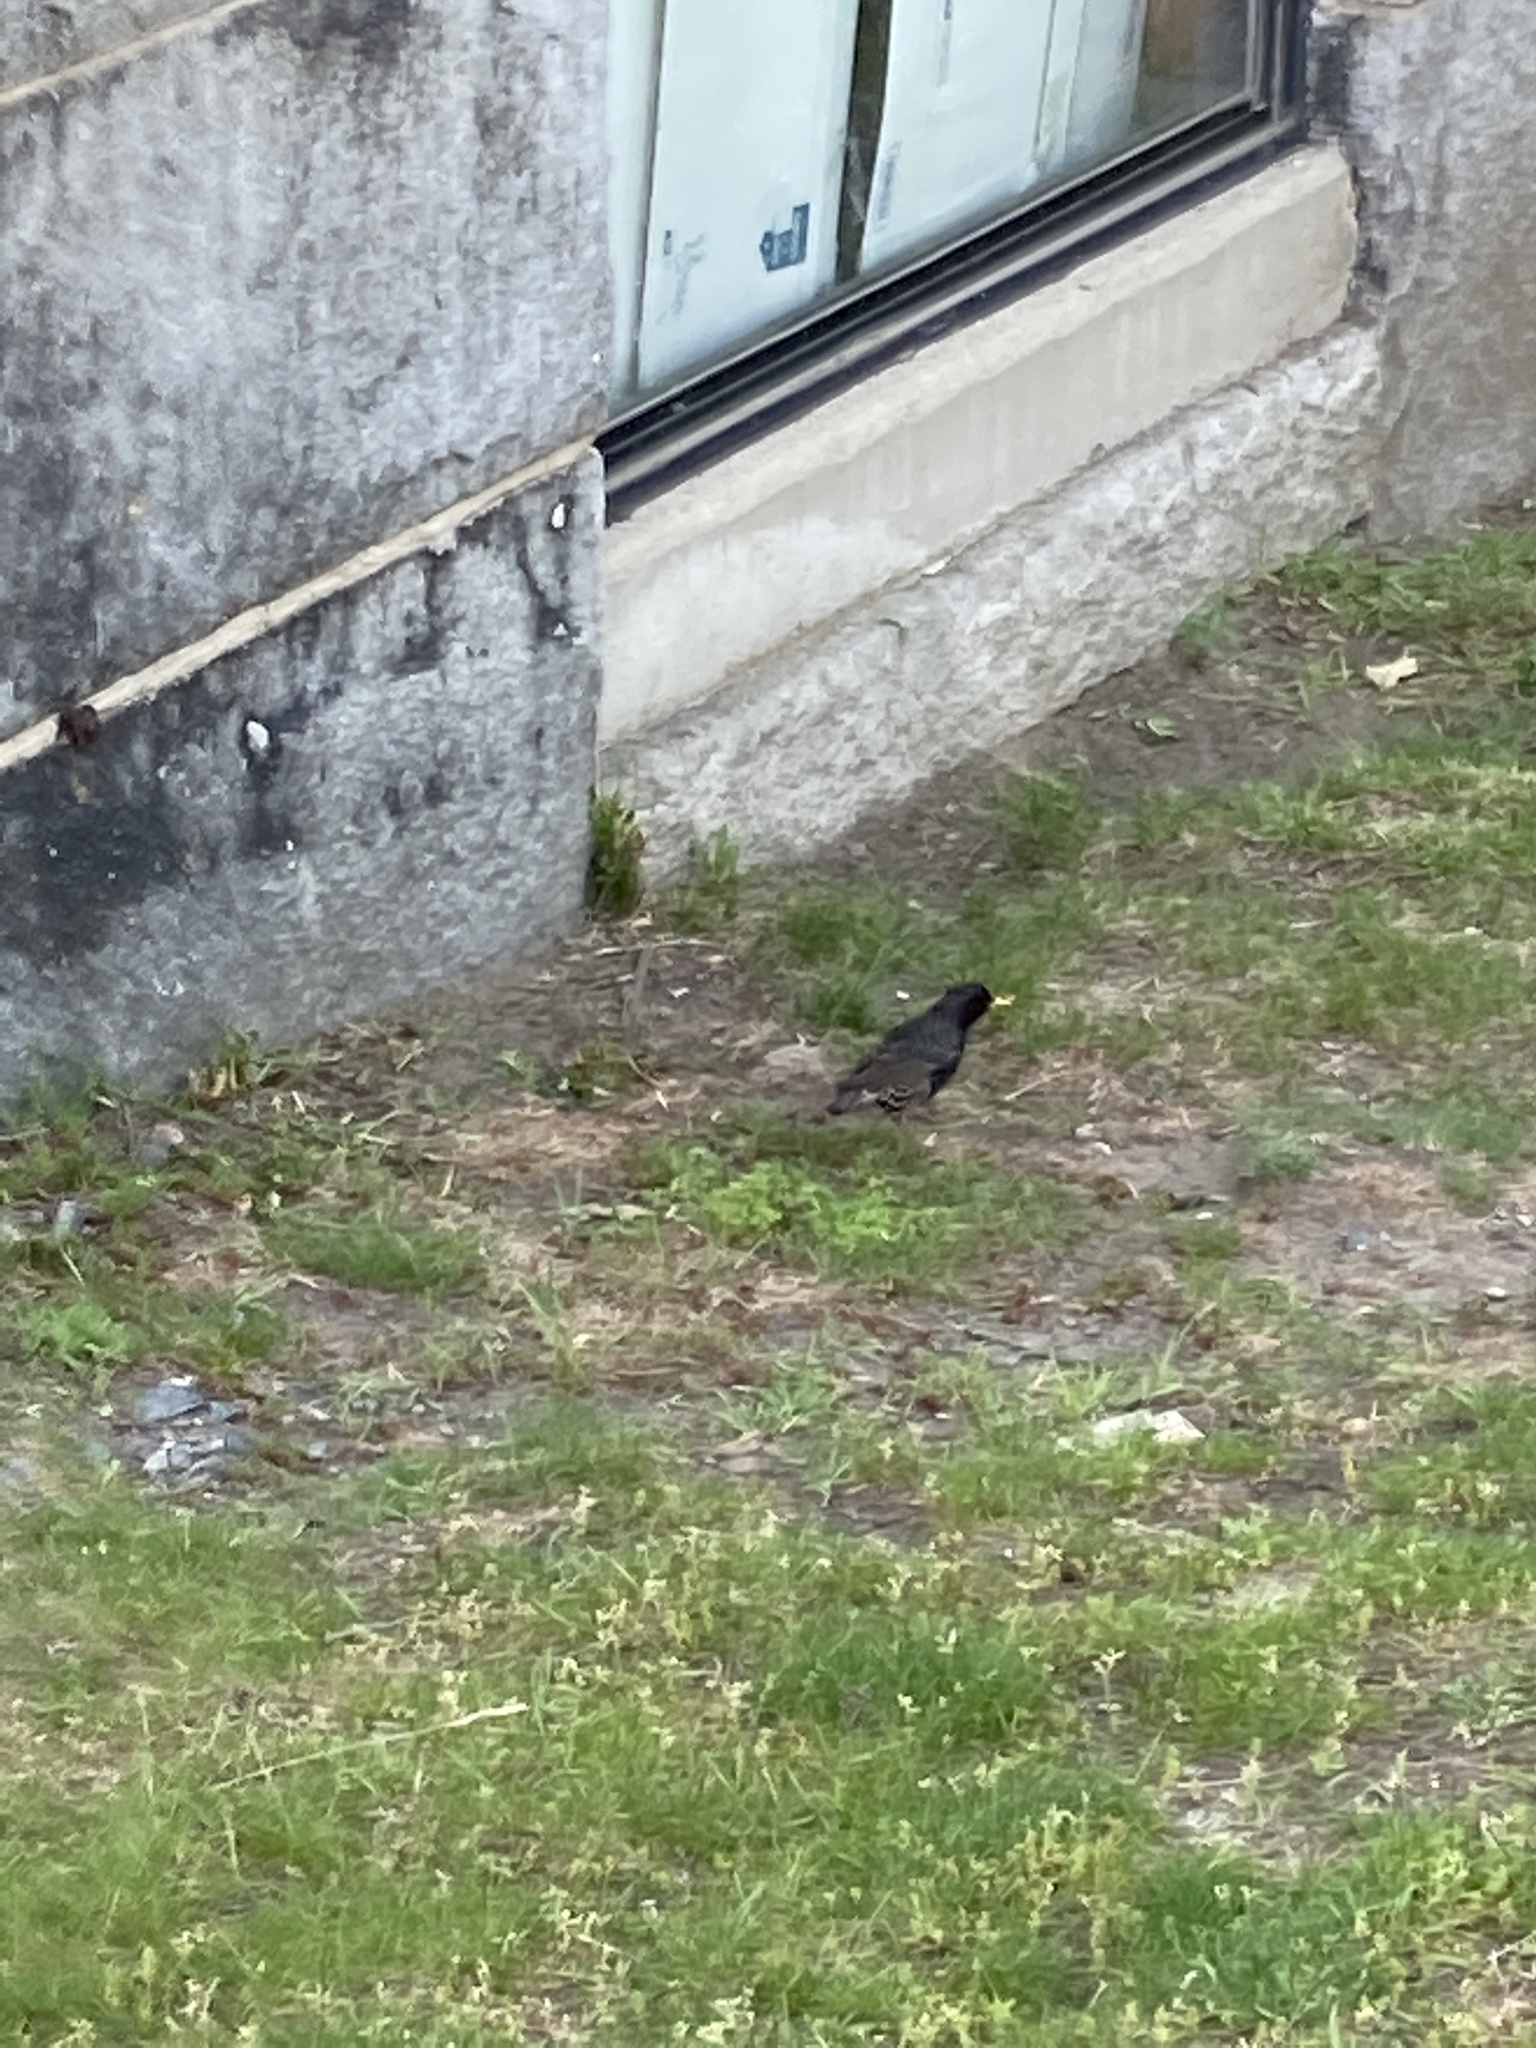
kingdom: Animalia
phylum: Chordata
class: Aves
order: Passeriformes
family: Sturnidae
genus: Sturnus
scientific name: Sturnus vulgaris
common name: Common starling
